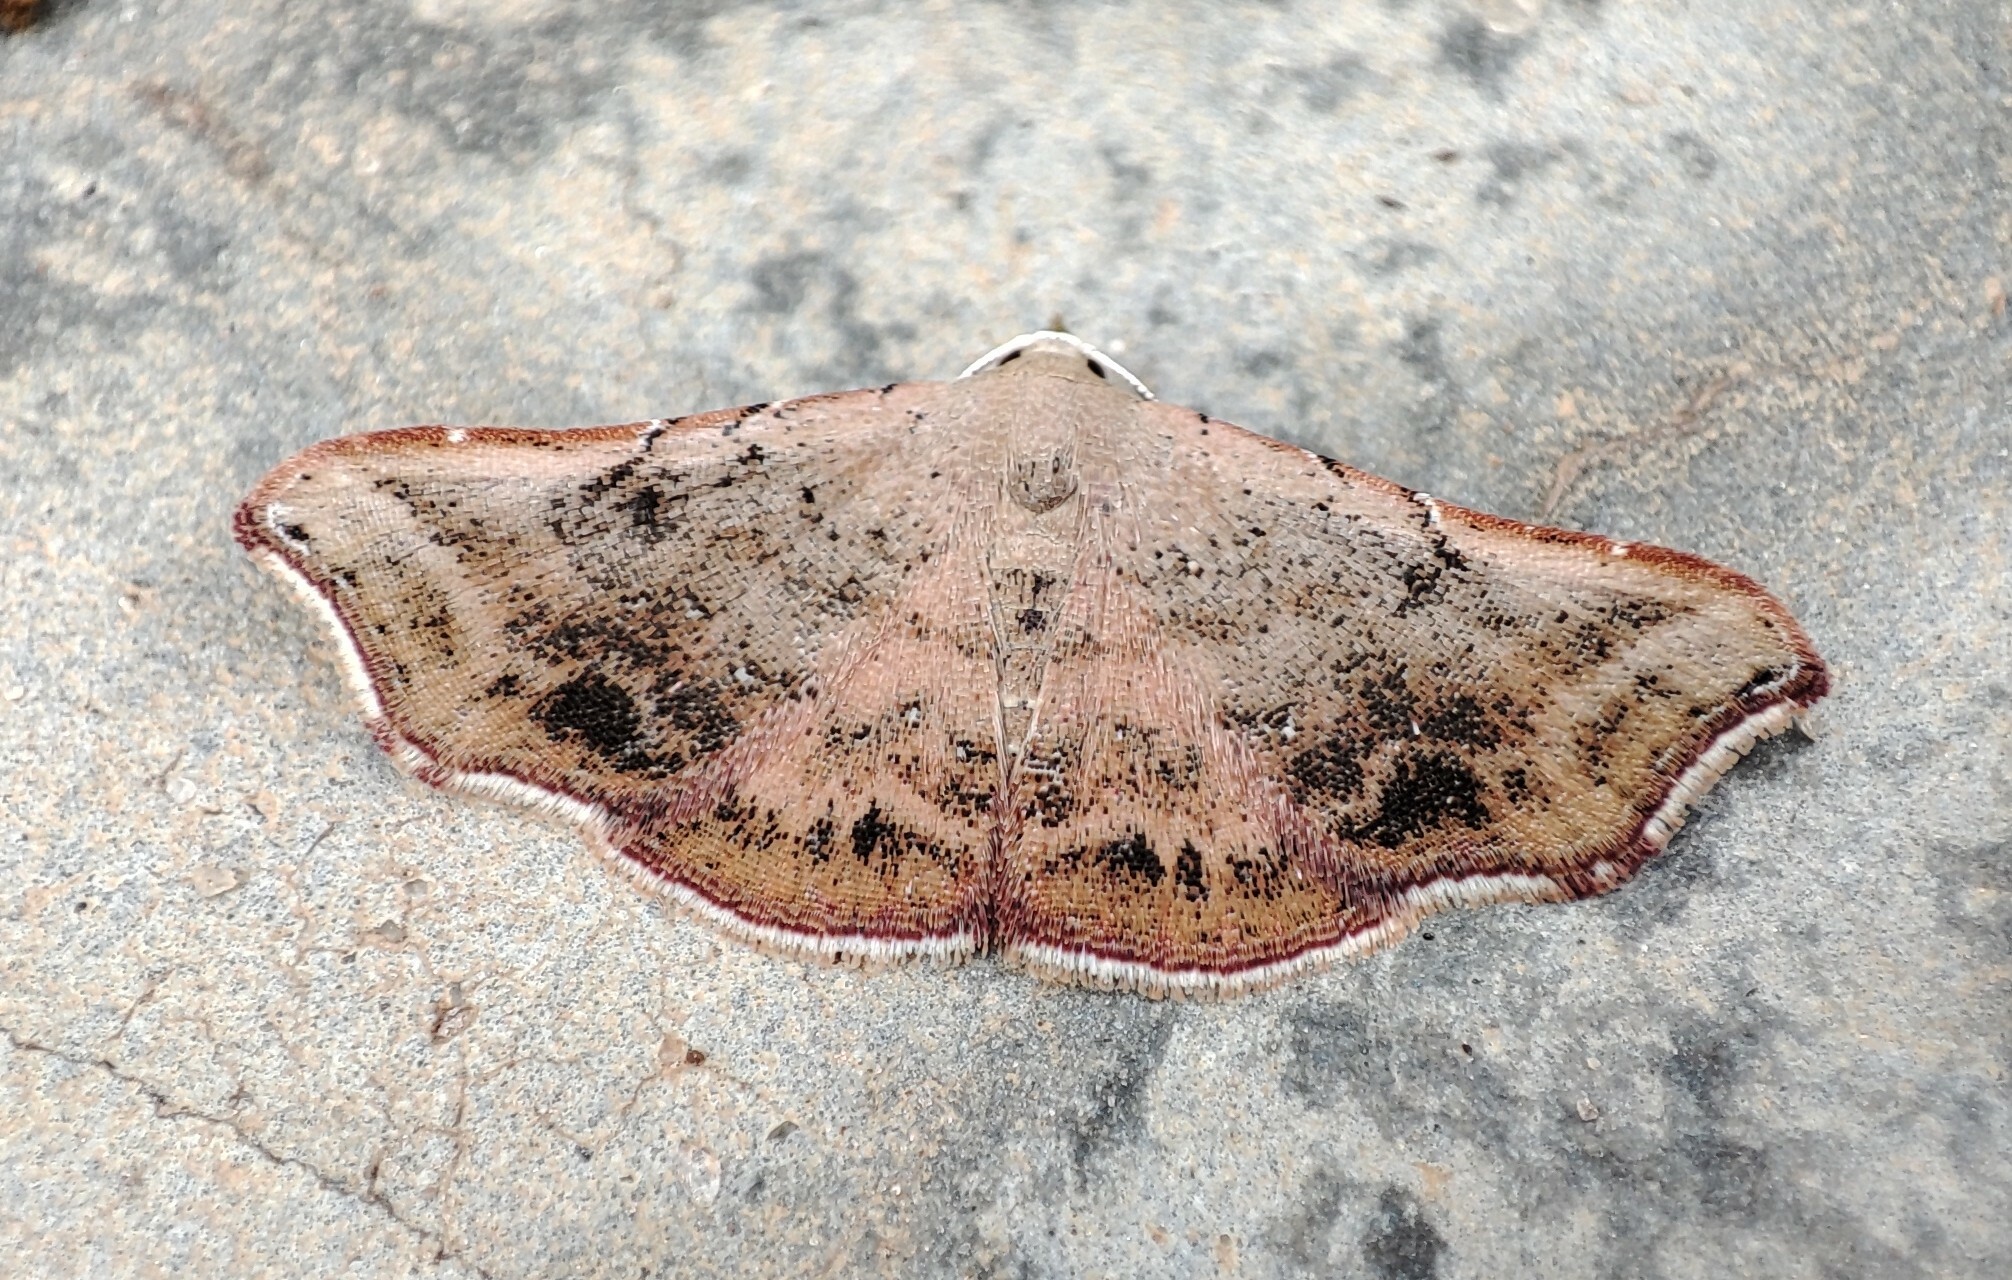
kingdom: Animalia
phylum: Arthropoda
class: Insecta
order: Lepidoptera
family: Erebidae
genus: Corgatha
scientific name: Corgatha producta
